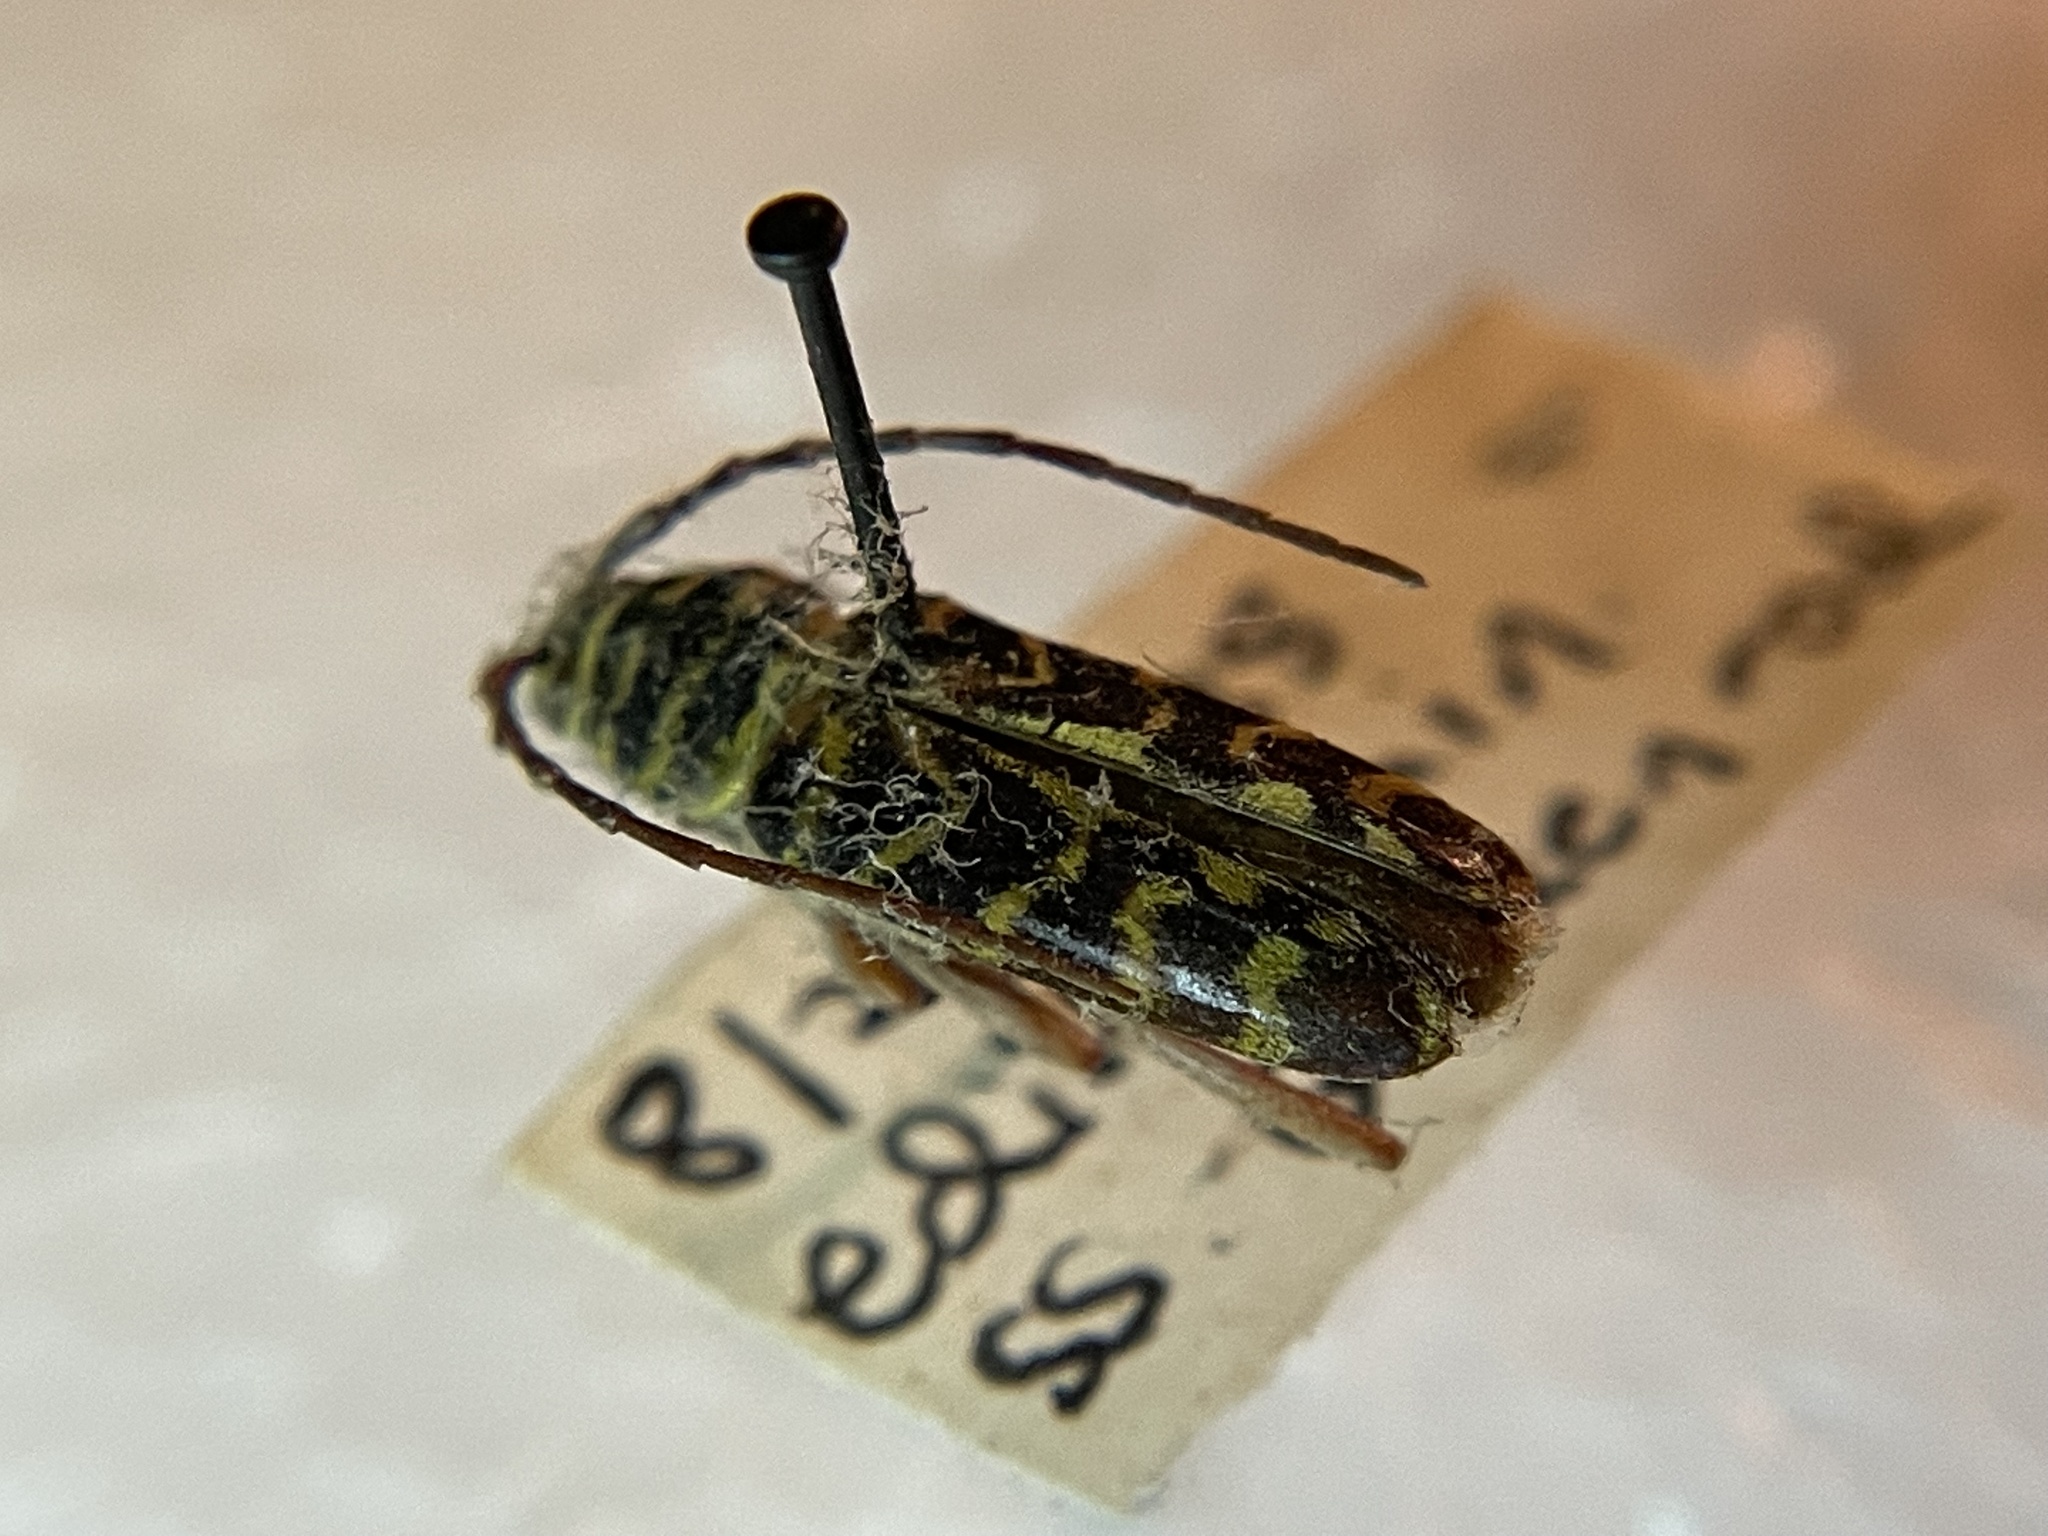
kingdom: Animalia
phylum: Arthropoda
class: Insecta
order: Coleoptera
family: Cerambycidae
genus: Megacyllene
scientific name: Megacyllene robiniae
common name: Locust borer
